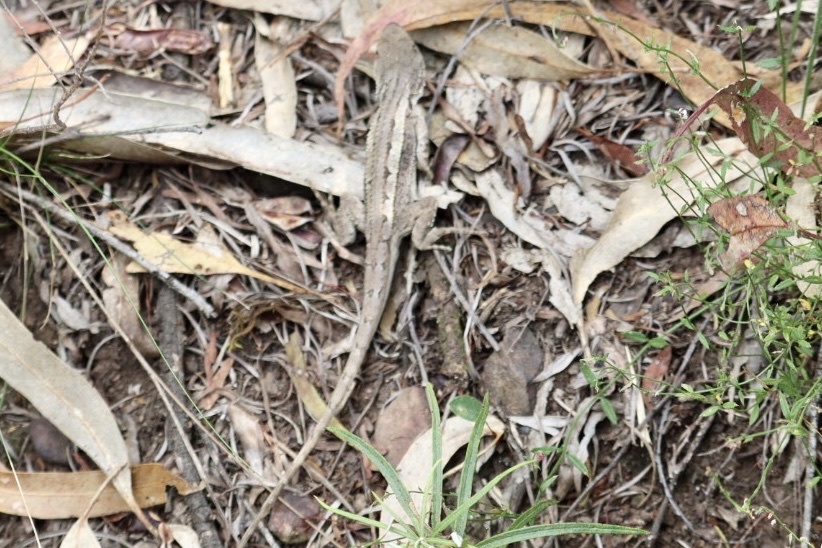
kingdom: Animalia
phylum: Chordata
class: Squamata
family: Agamidae
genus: Amphibolurus
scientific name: Amphibolurus muricatus
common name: Jacky lizard
